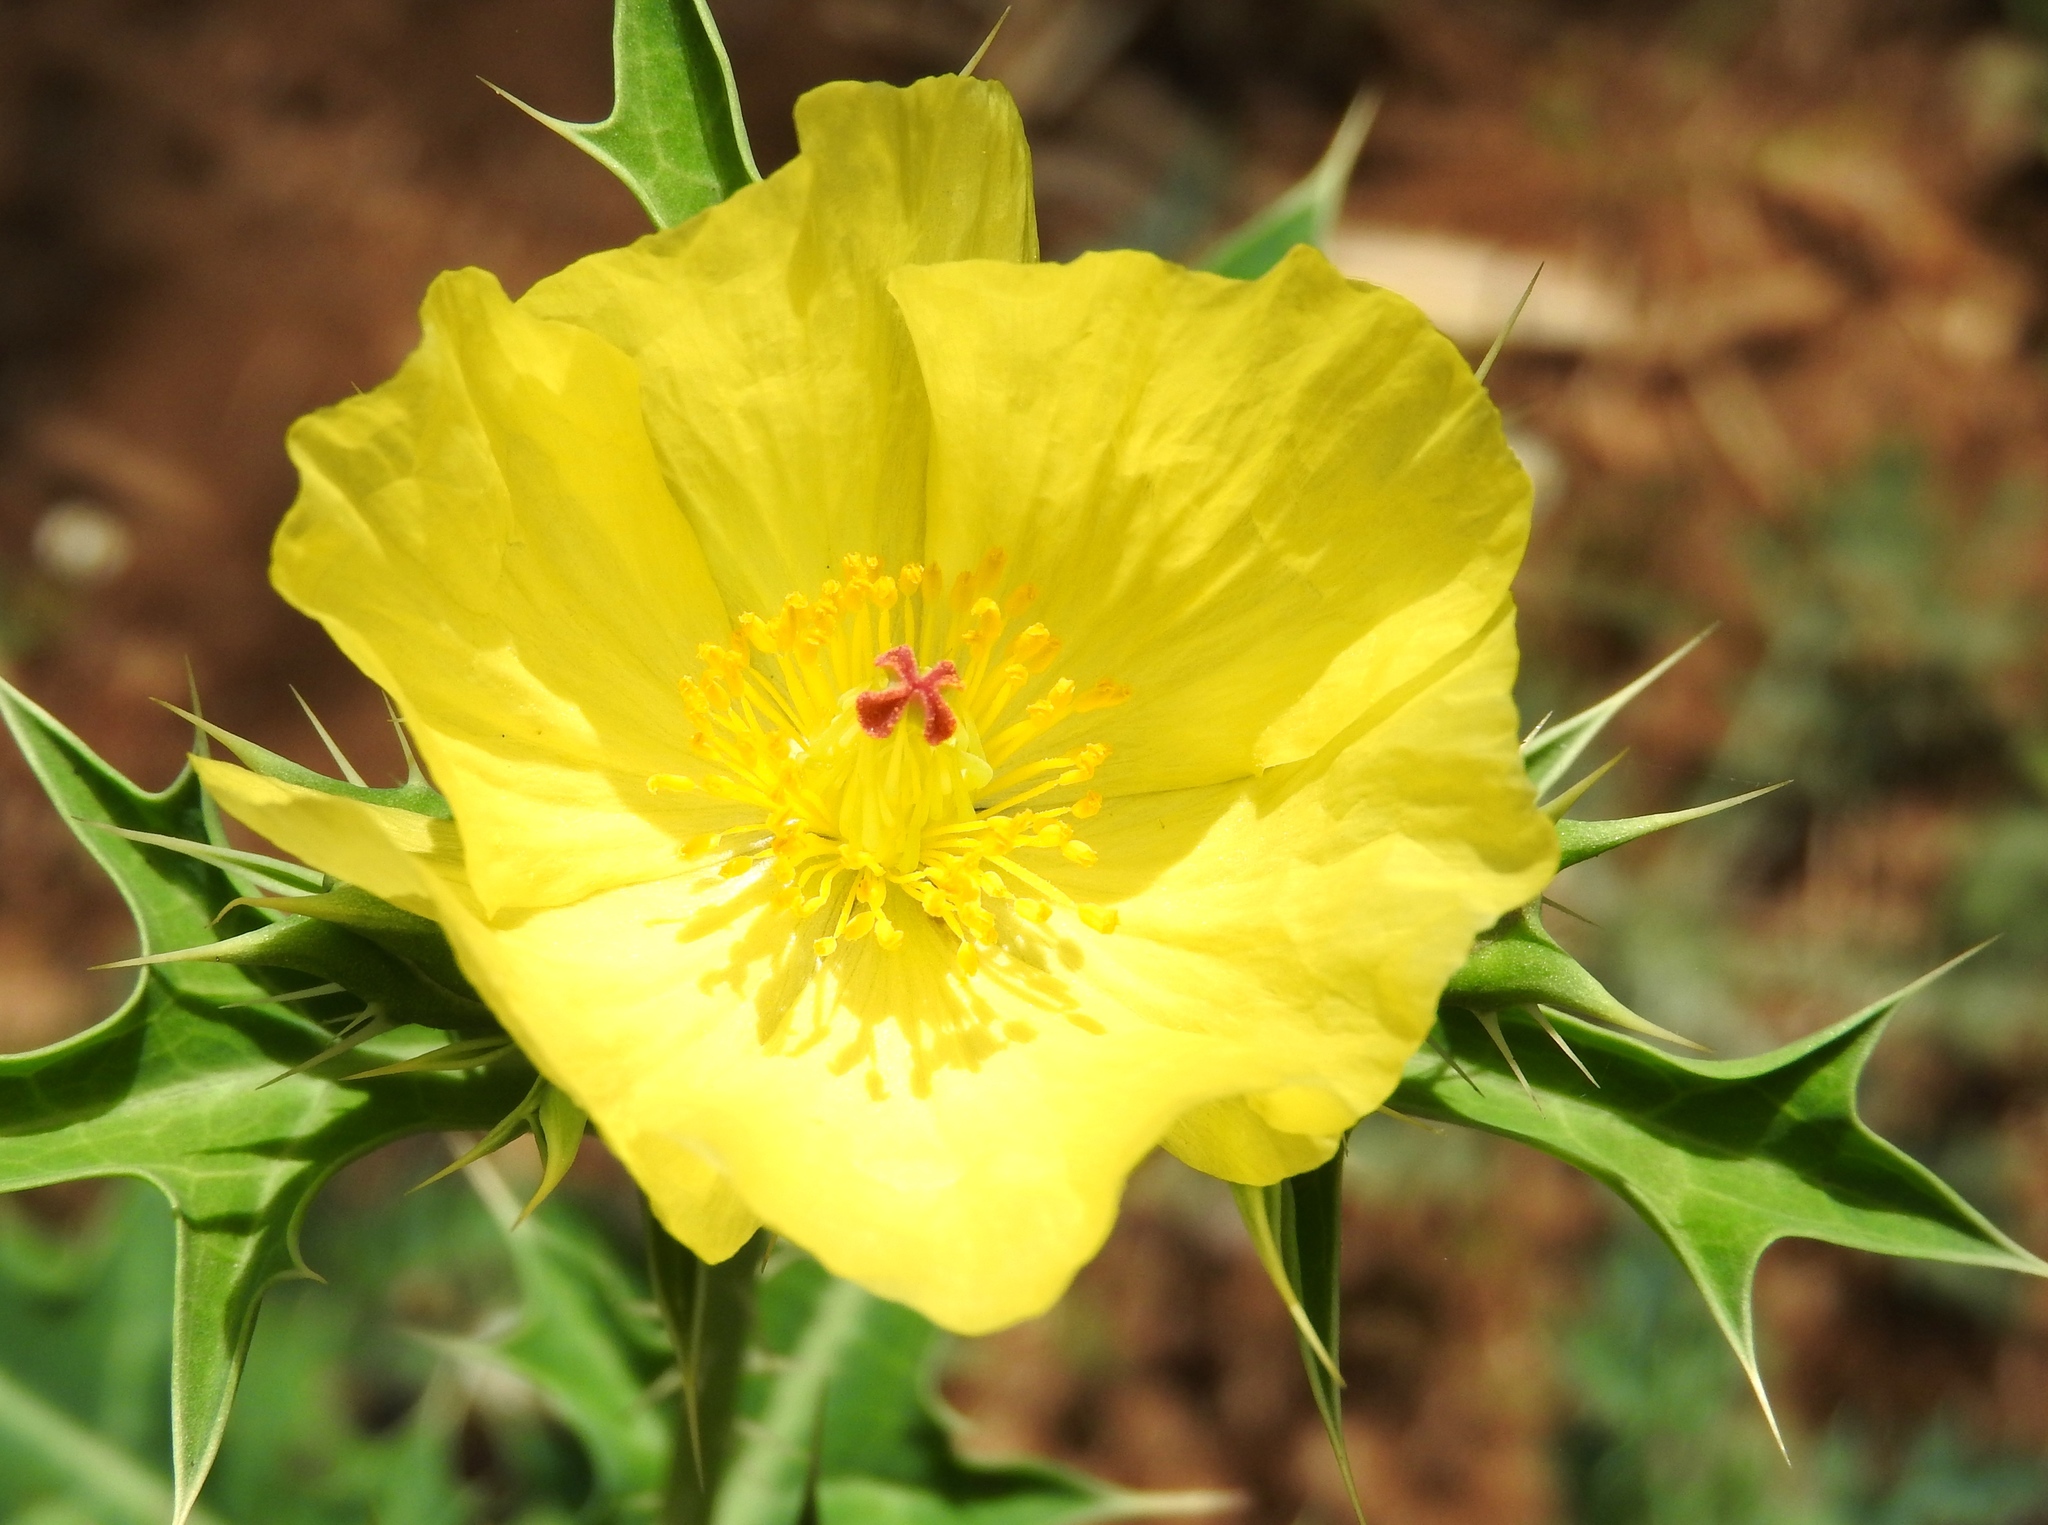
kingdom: Plantae
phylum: Tracheophyta
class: Magnoliopsida
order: Ranunculales
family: Papaveraceae
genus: Argemone
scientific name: Argemone mexicana
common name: Mexican poppy
